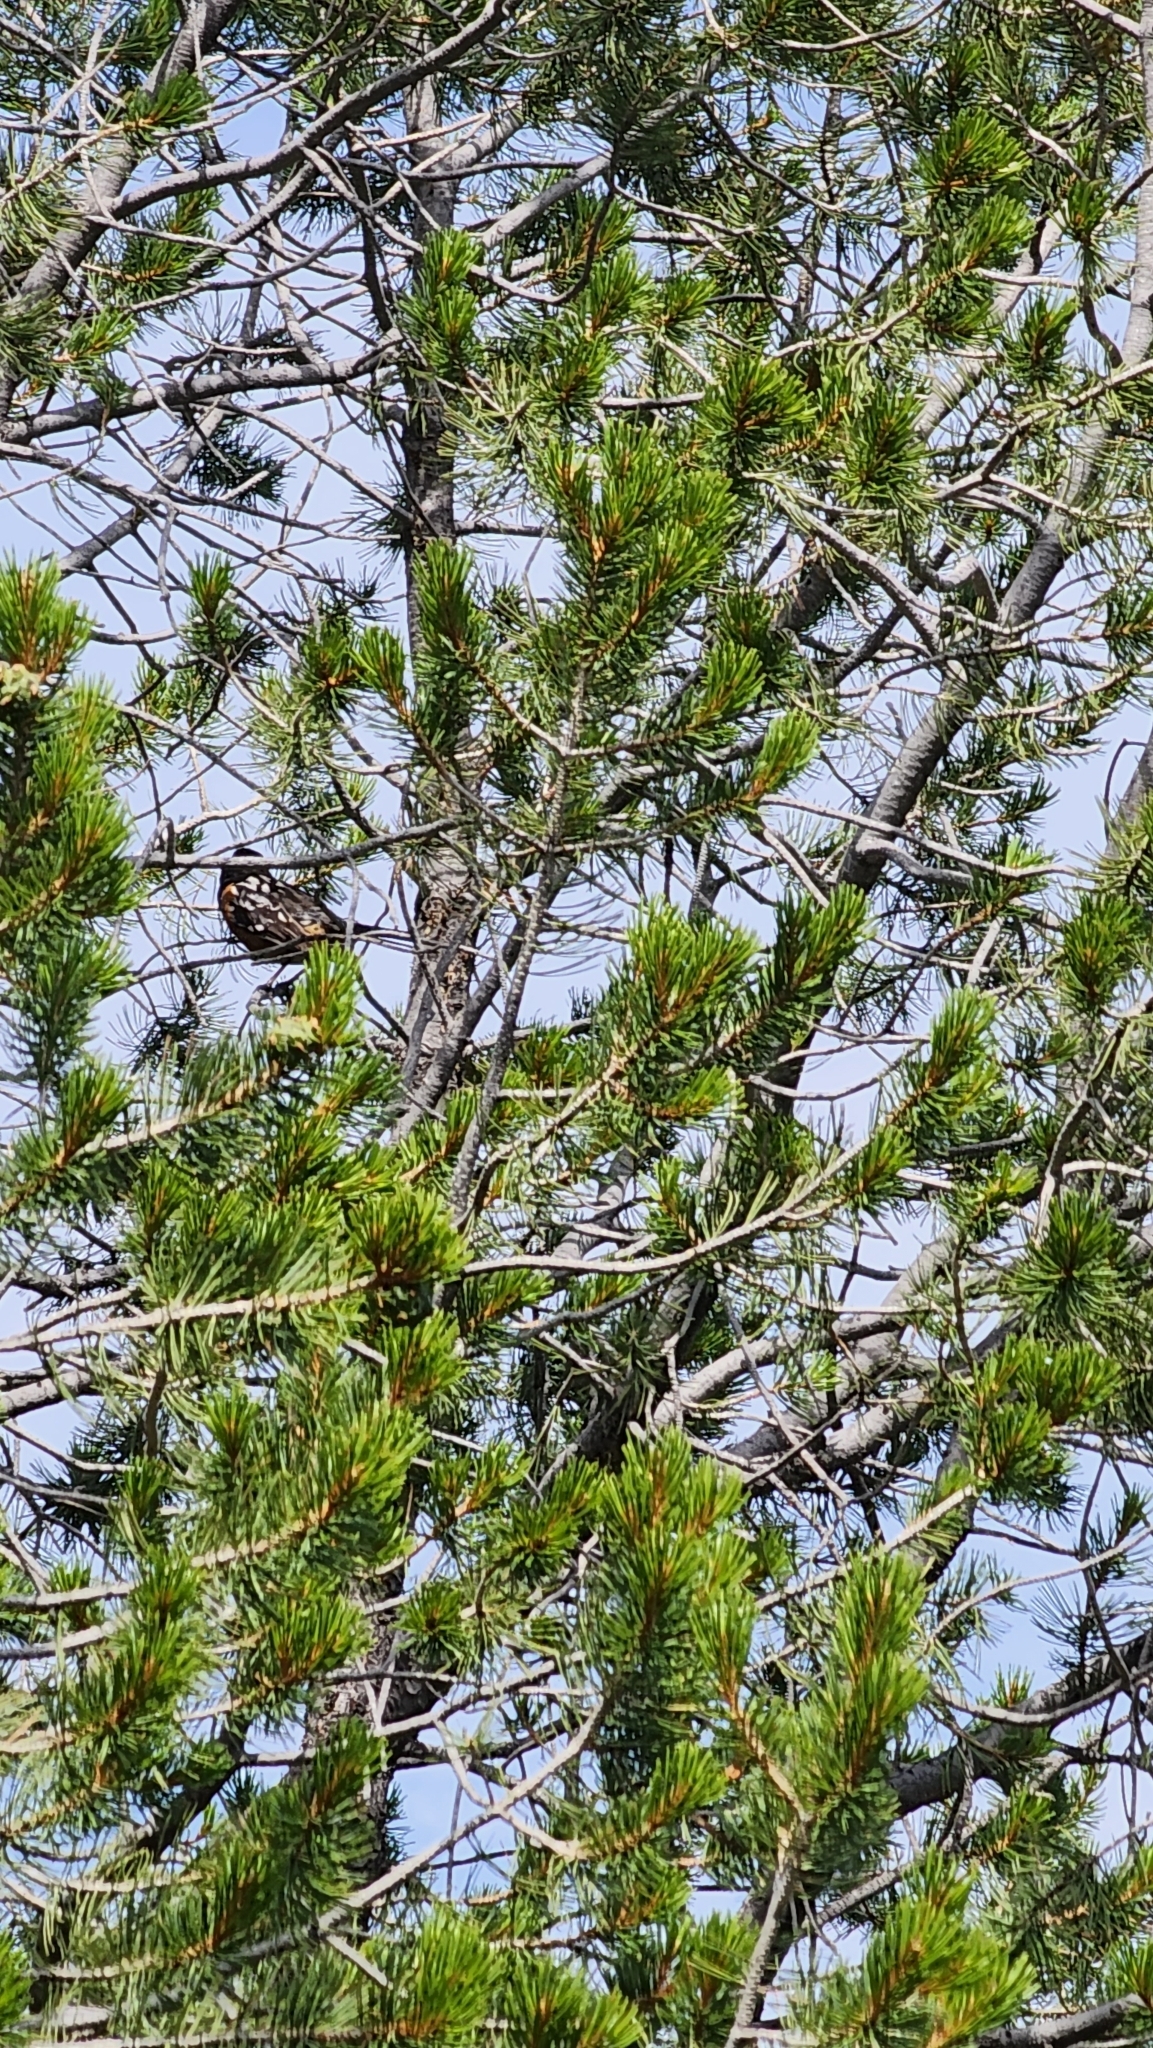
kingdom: Animalia
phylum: Chordata
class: Aves
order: Passeriformes
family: Passerellidae
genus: Pipilo
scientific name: Pipilo maculatus
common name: Spotted towhee
